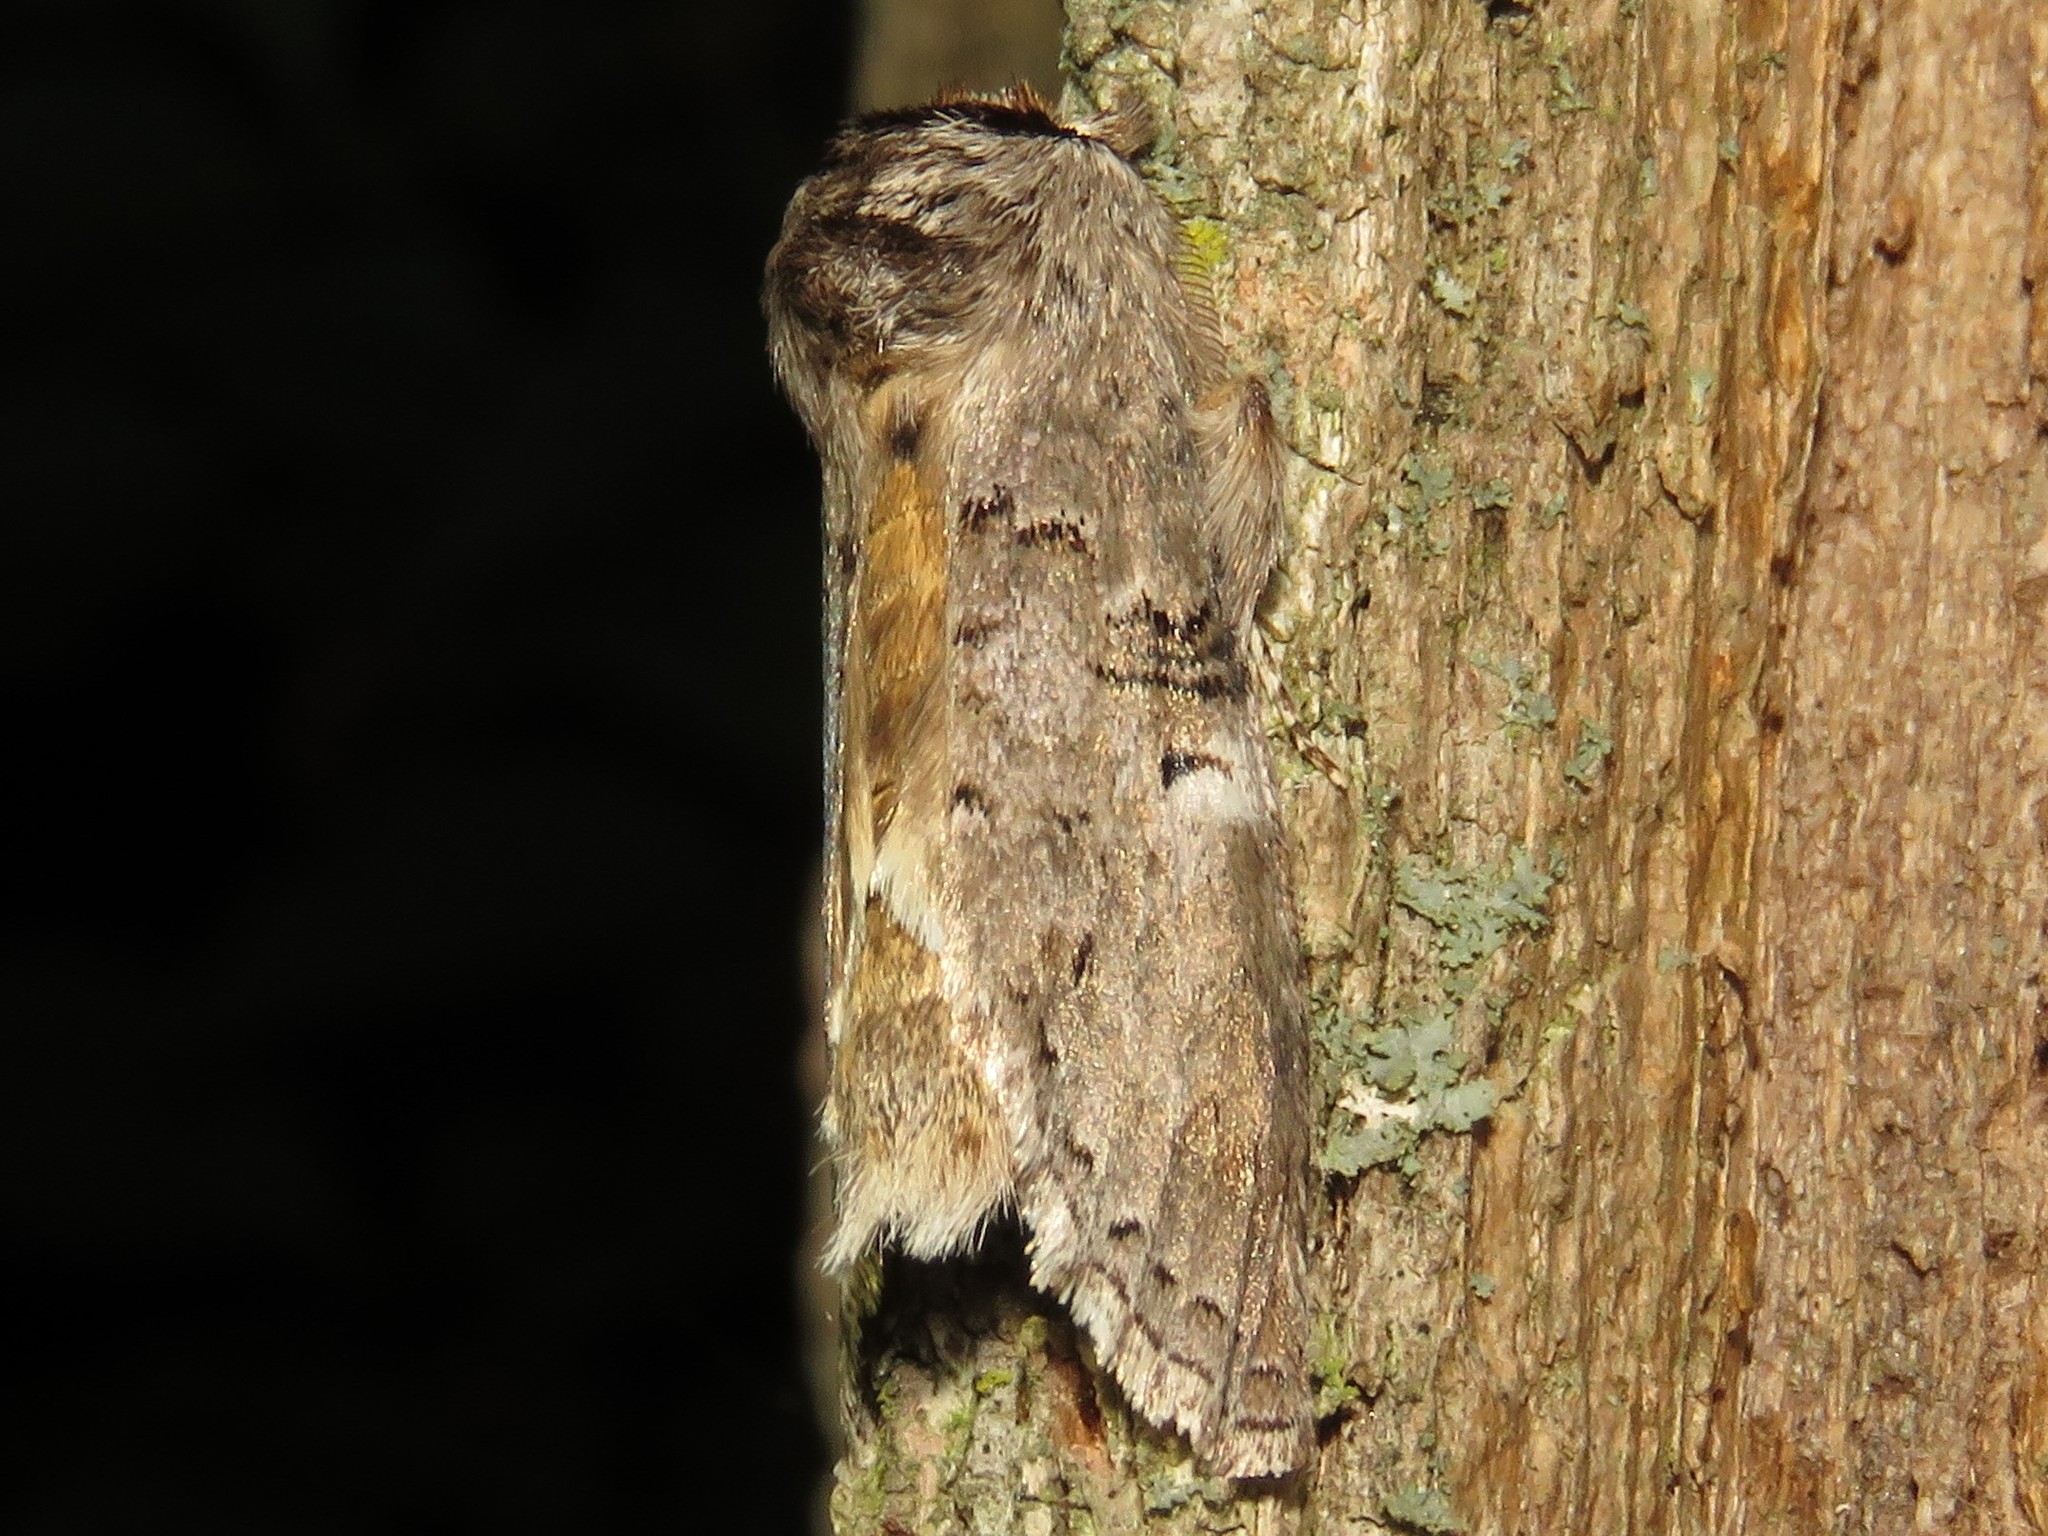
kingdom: Animalia
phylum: Arthropoda
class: Insecta
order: Lepidoptera
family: Notodontidae
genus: Ellida
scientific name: Ellida caniplaga
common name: Linden prominent
